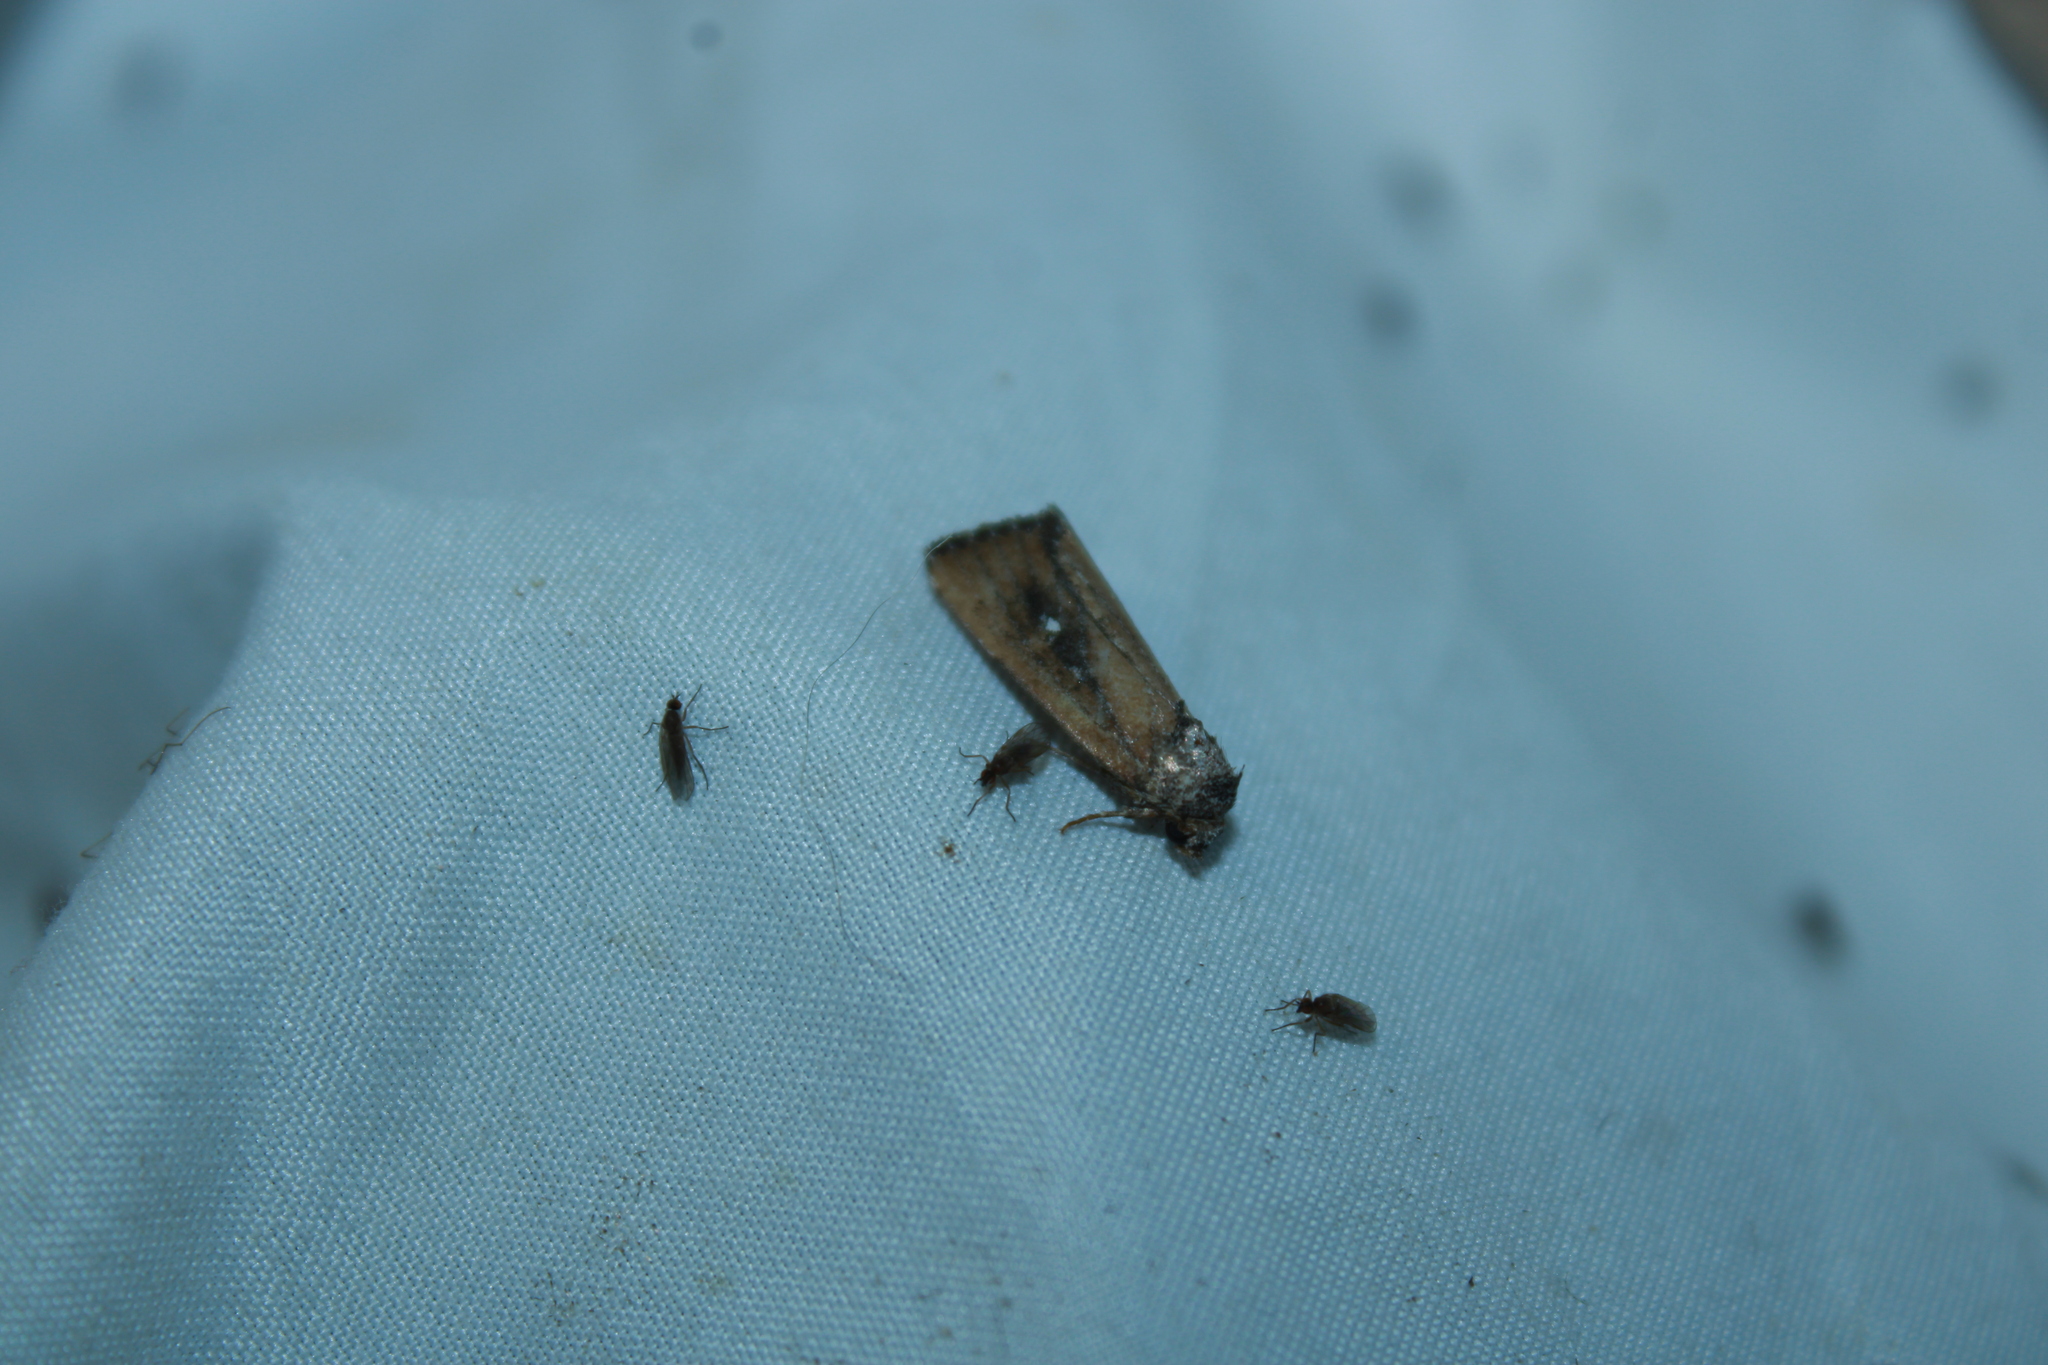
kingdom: Animalia
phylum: Arthropoda
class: Insecta
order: Lepidoptera
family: Noctuidae
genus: Condica
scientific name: Condica videns
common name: White-dotted groundling
